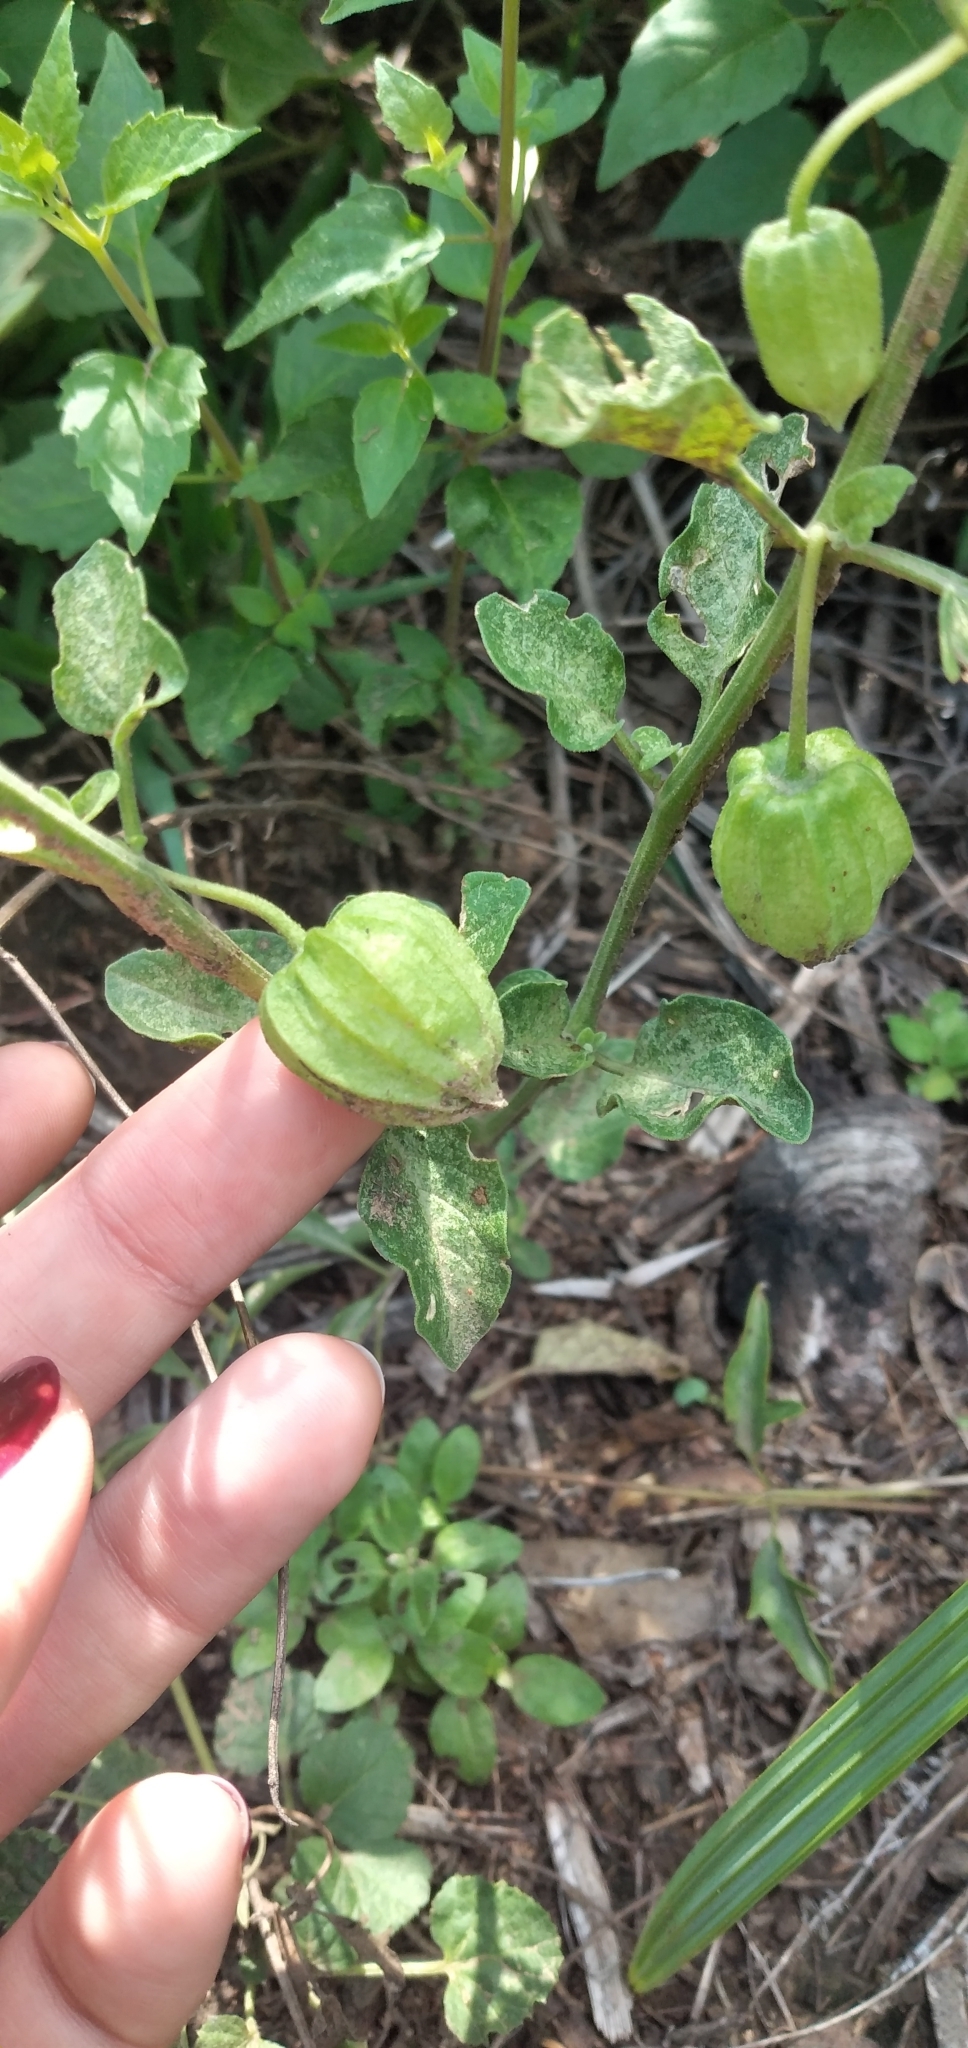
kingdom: Plantae
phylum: Tracheophyta
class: Magnoliopsida
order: Solanales
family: Solanaceae
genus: Physalis
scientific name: Physalis viscosa
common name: Stellate ground-cherry
